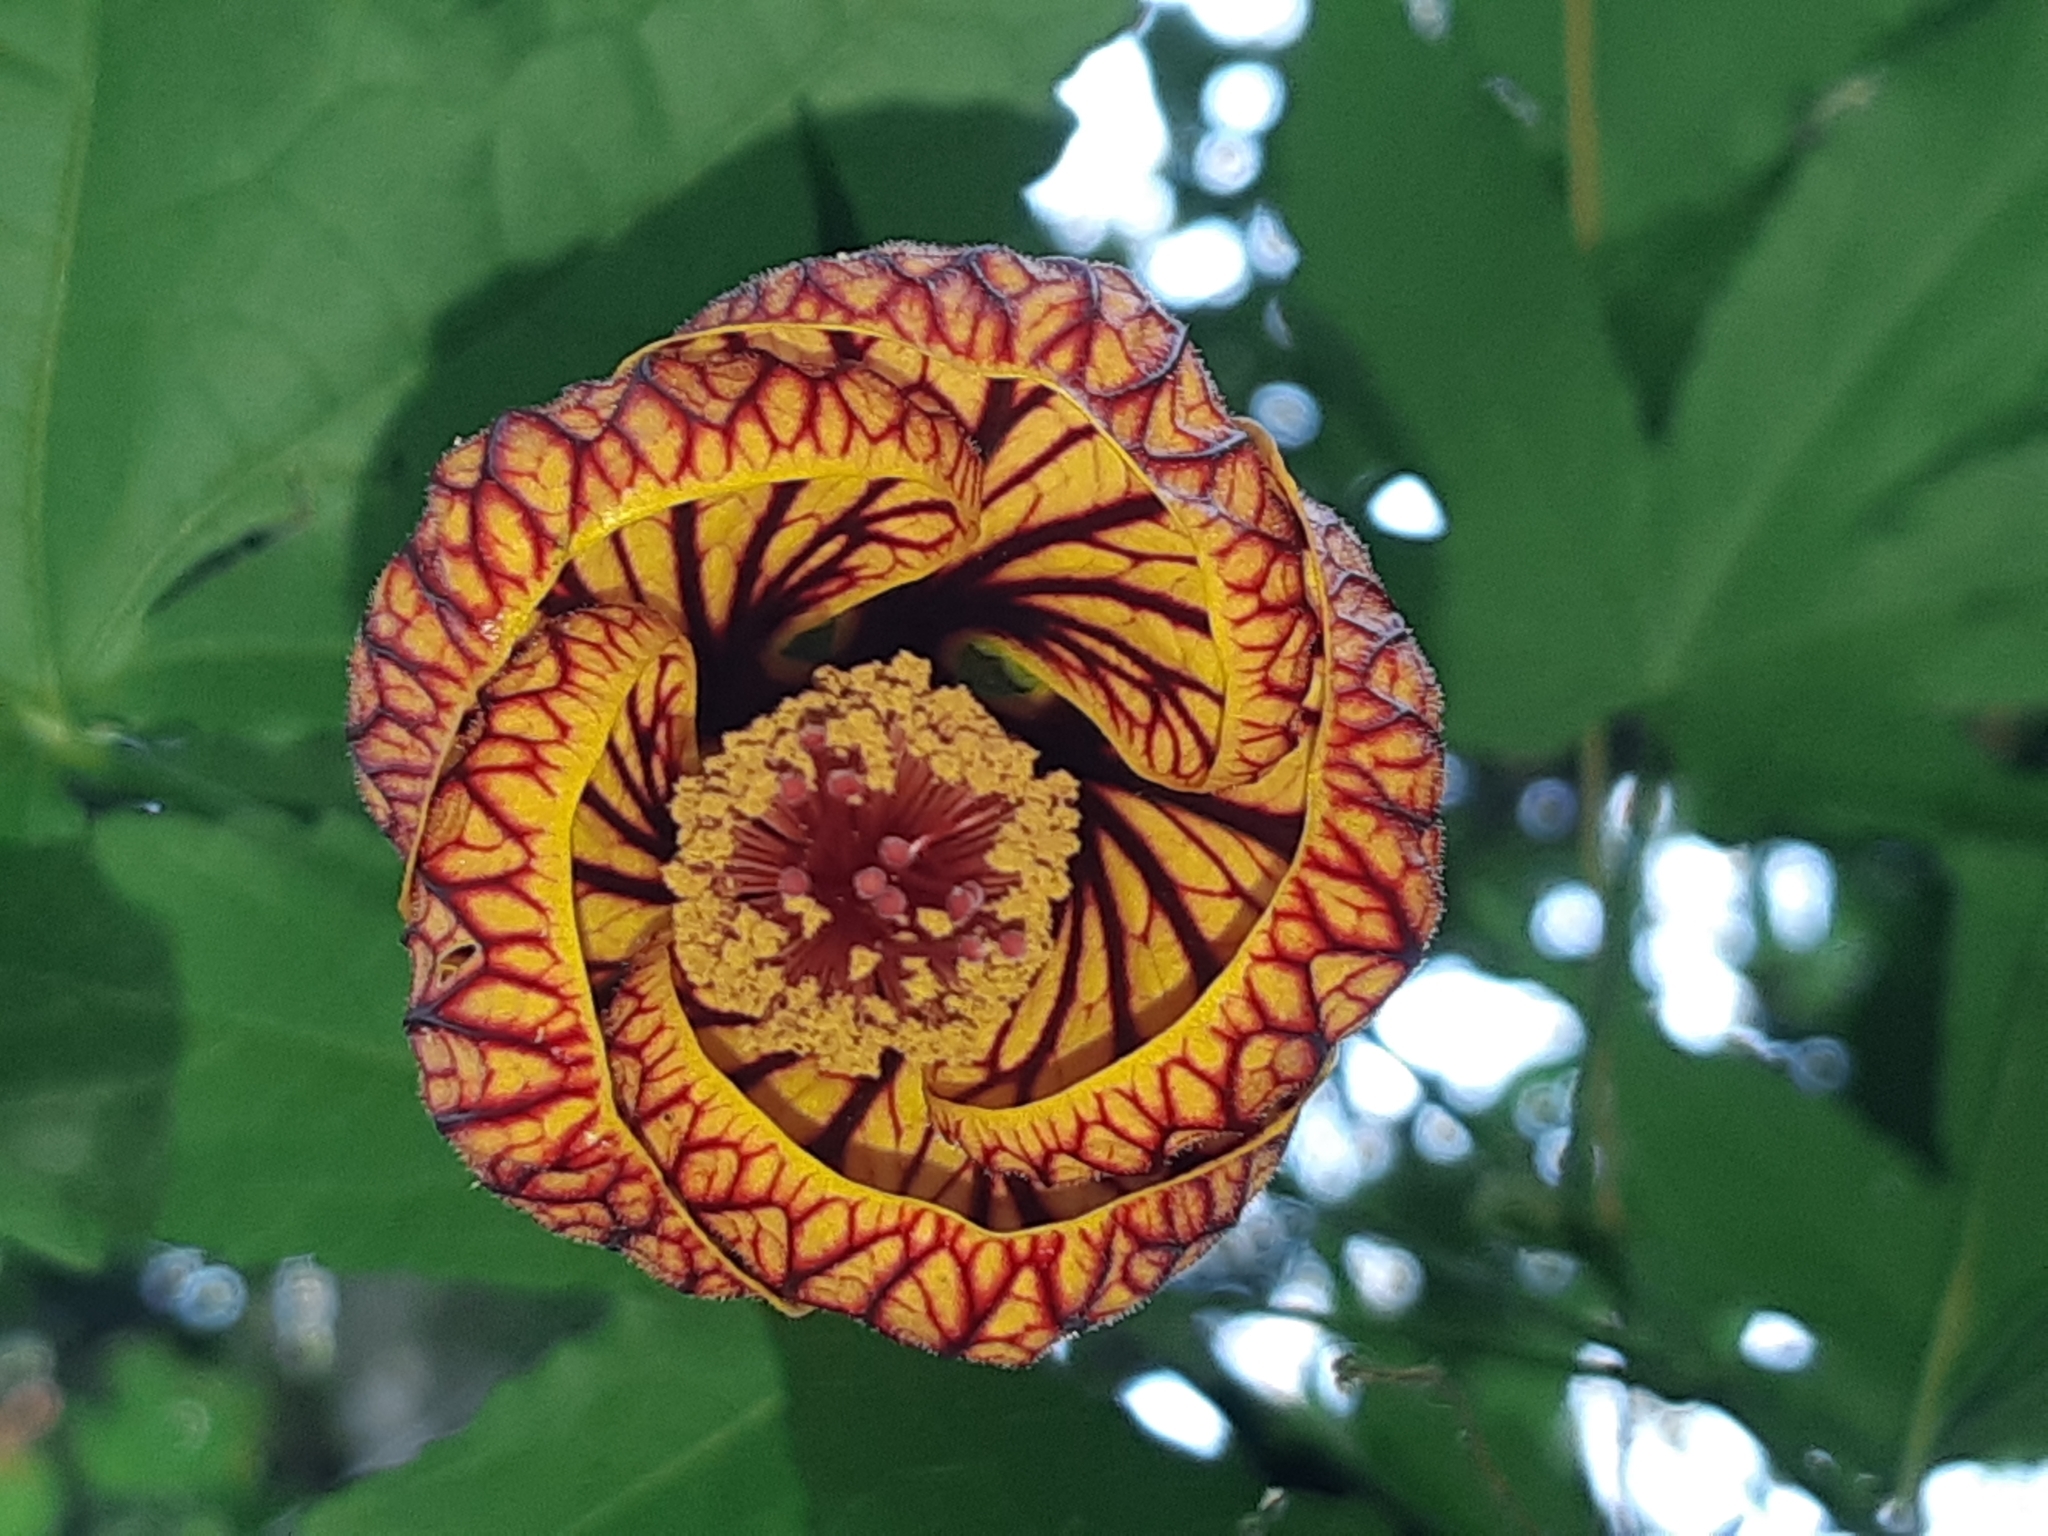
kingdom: Plantae
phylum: Tracheophyta
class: Magnoliopsida
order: Malvales
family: Malvaceae
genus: Callianthe
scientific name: Callianthe picta
